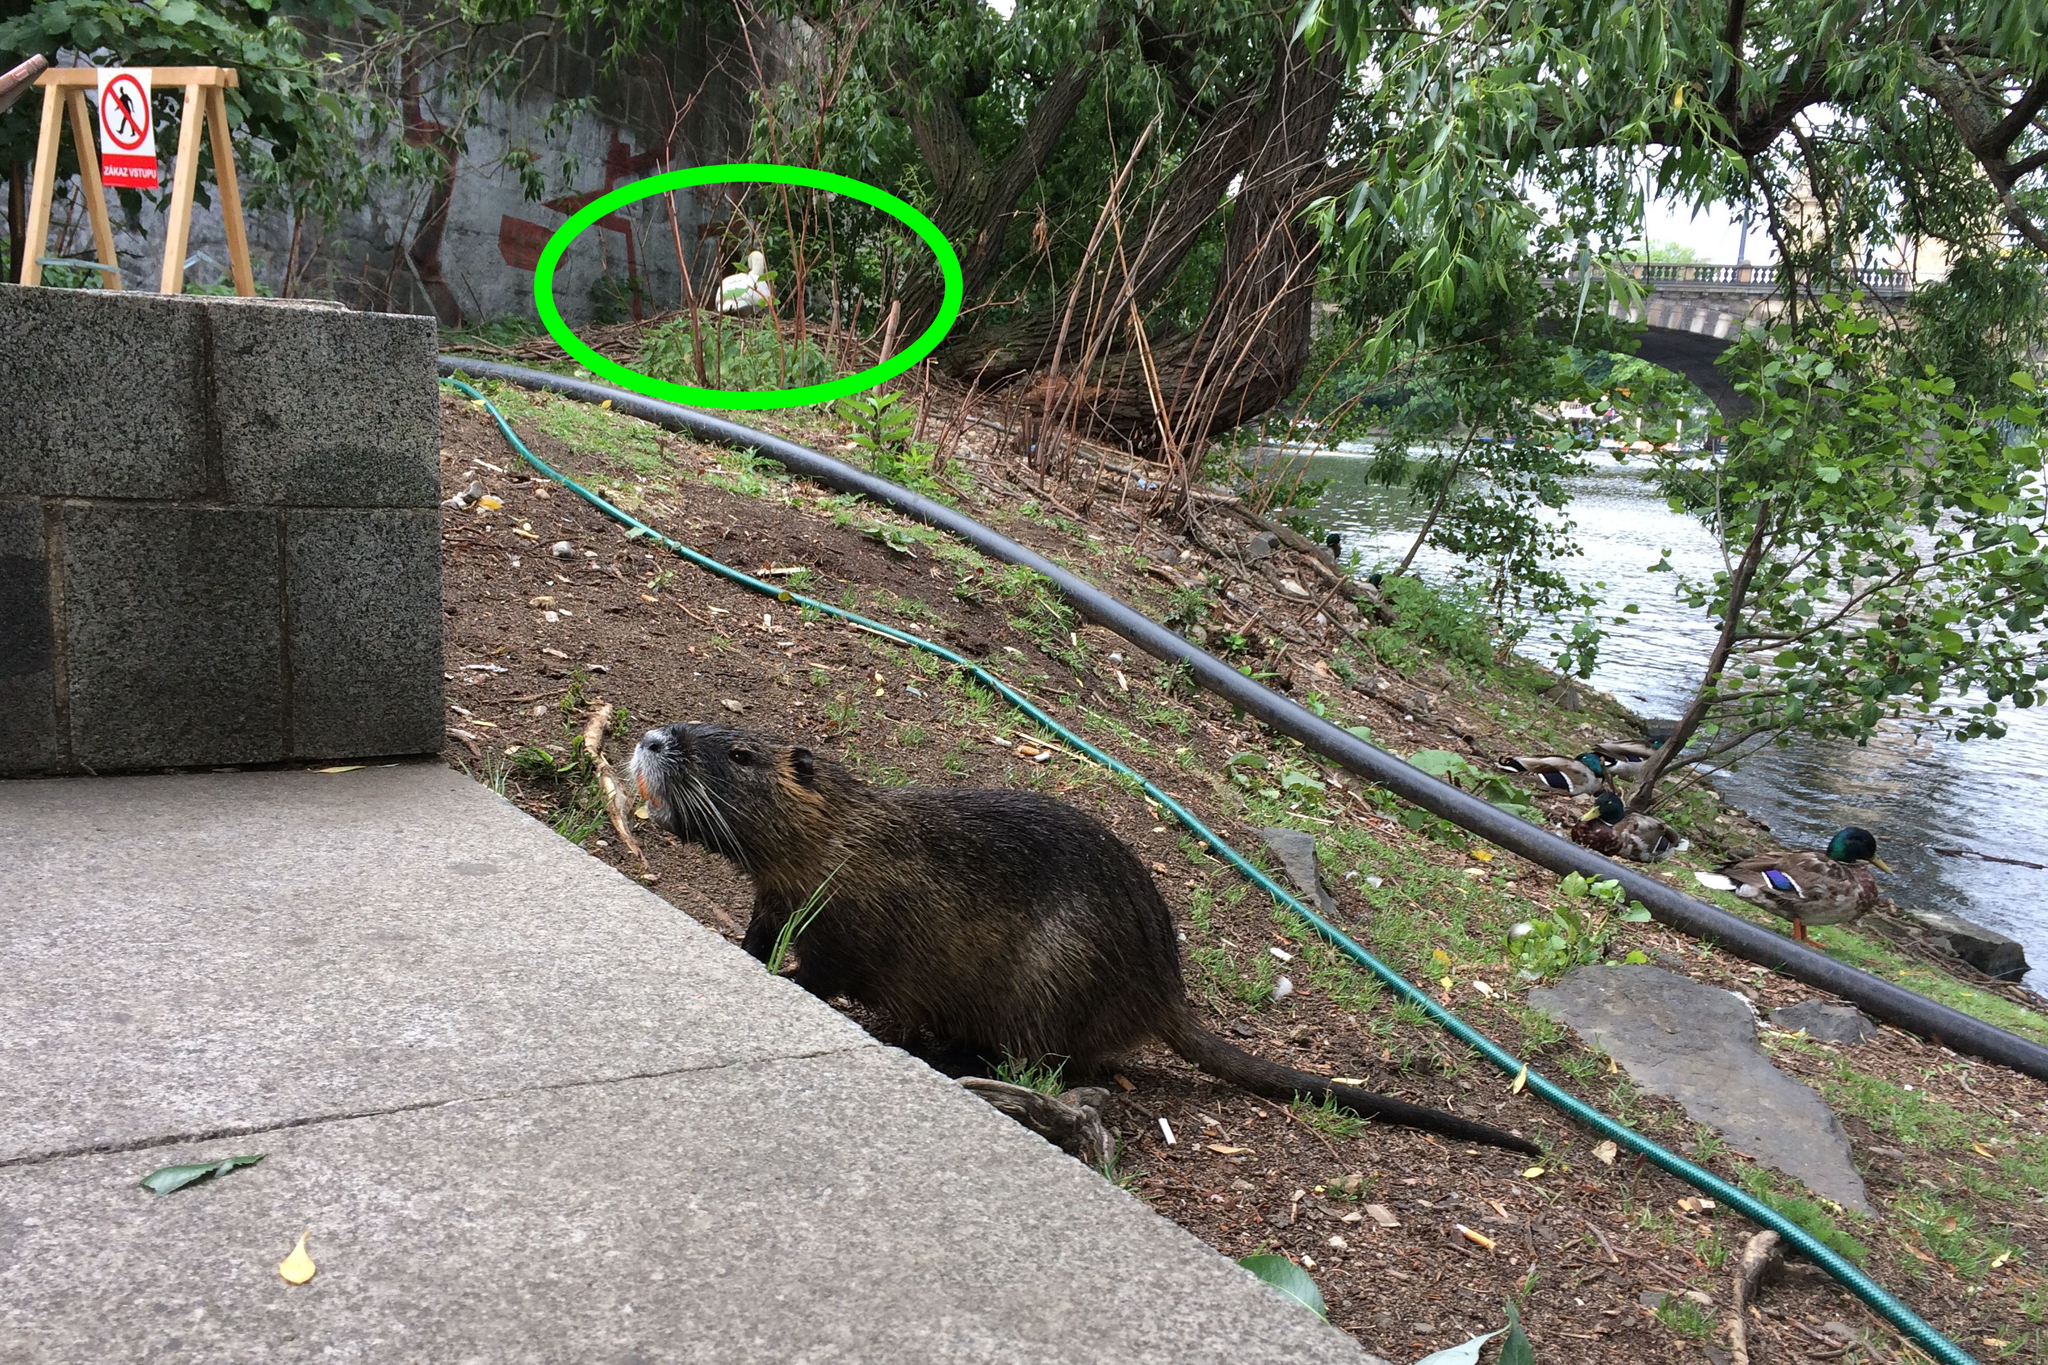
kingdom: Animalia
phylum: Chordata
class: Aves
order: Anseriformes
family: Anatidae
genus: Cygnus
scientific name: Cygnus olor
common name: Mute swan
